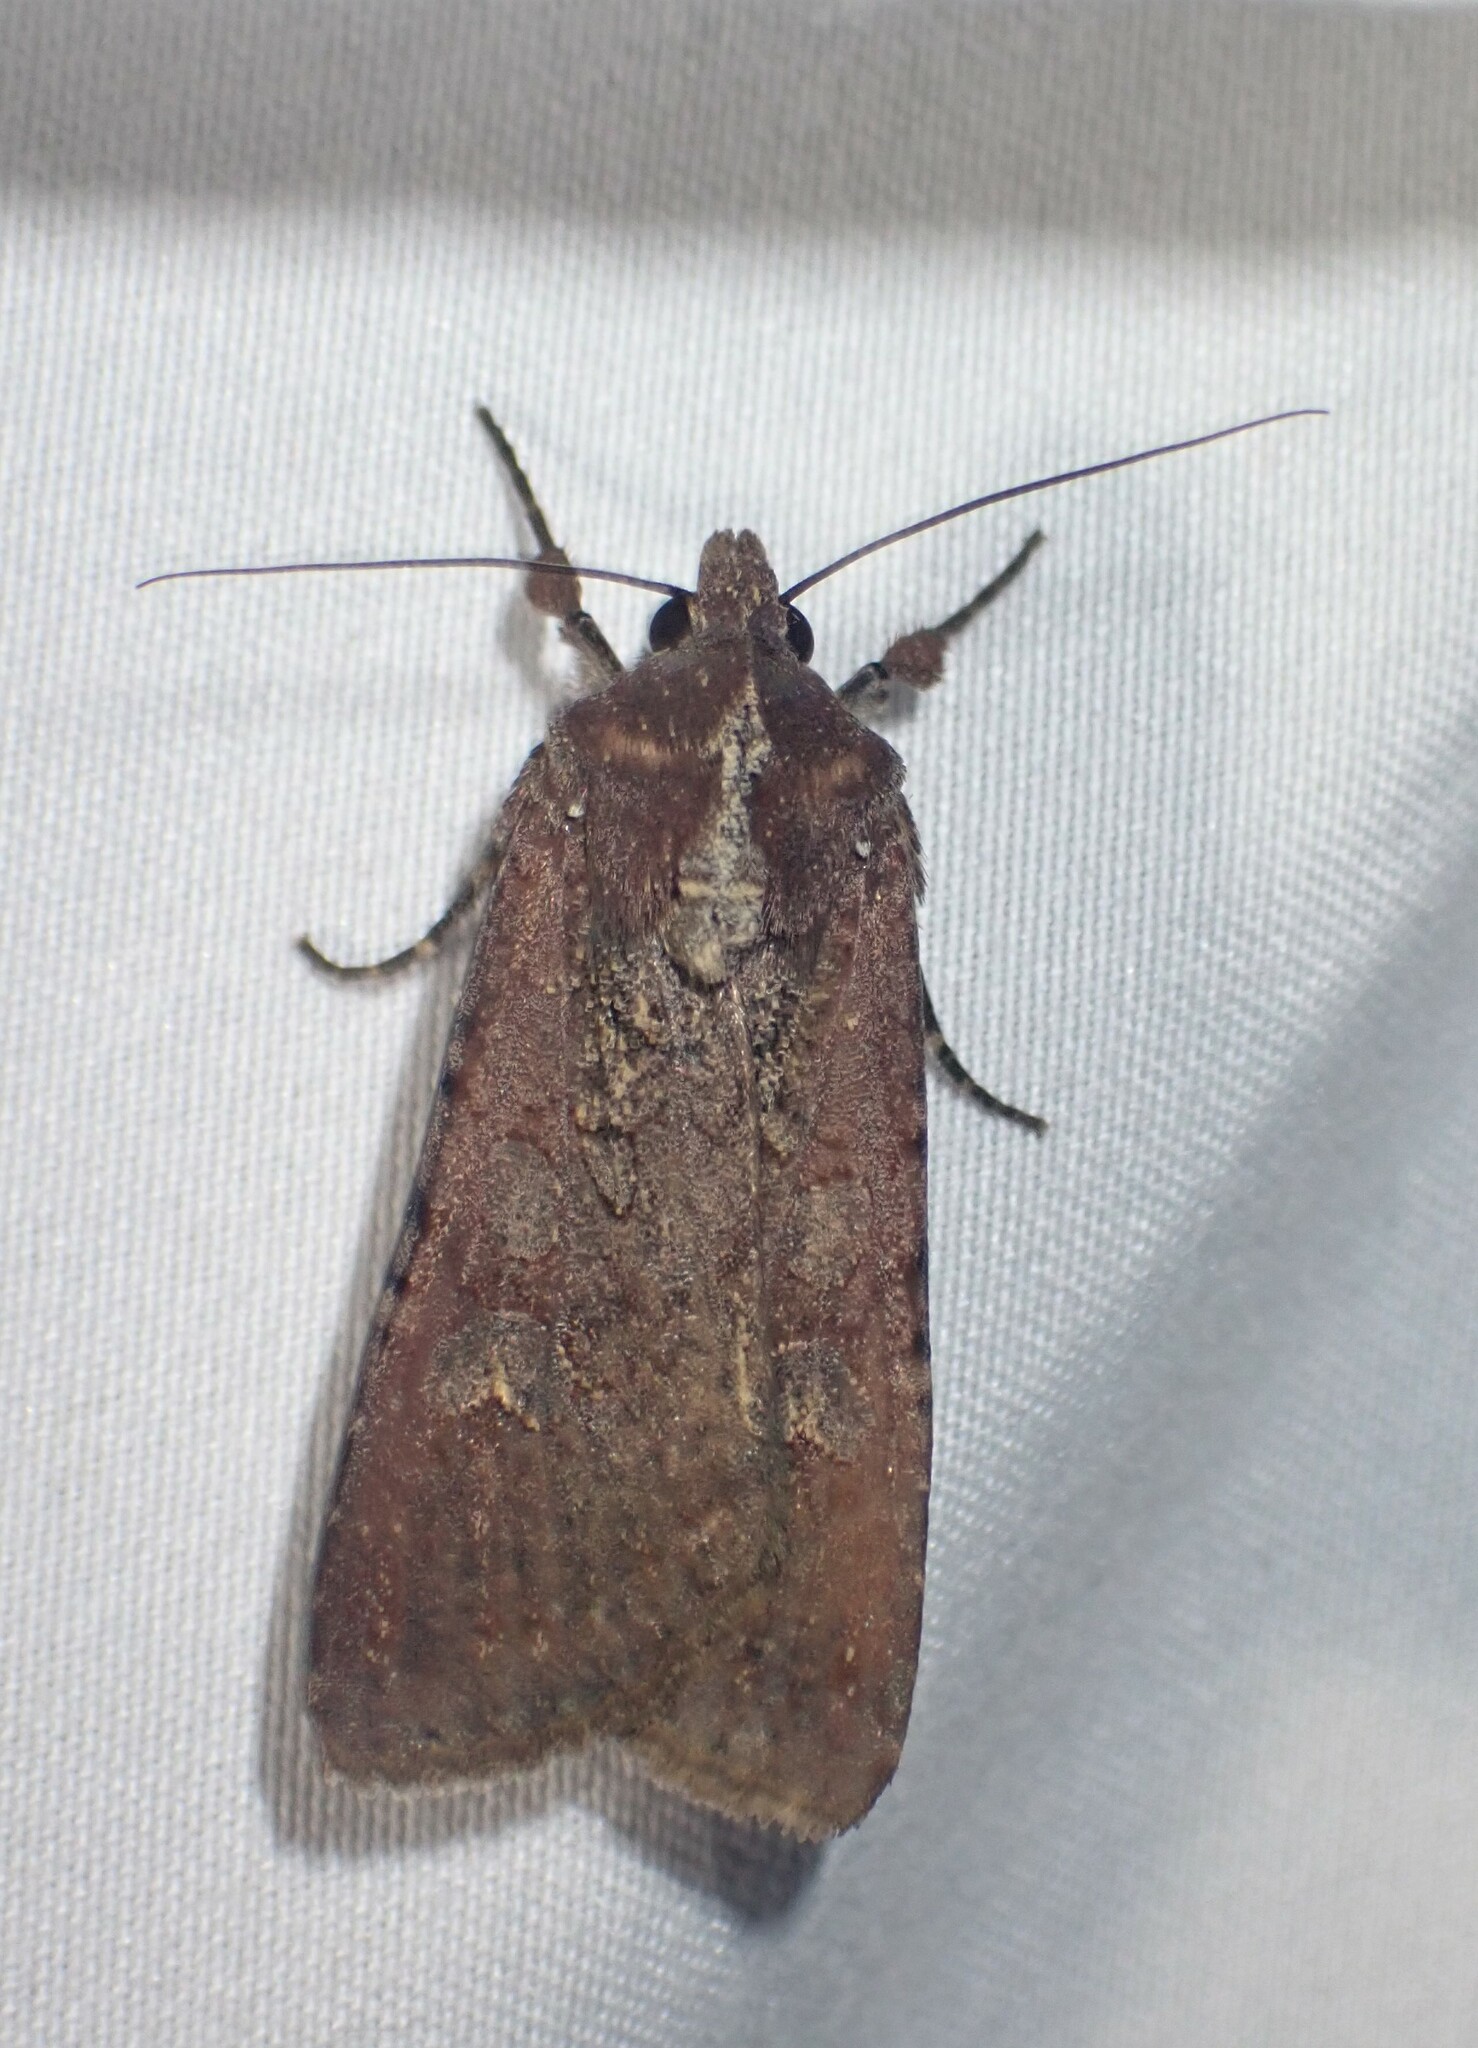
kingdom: Animalia
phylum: Arthropoda
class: Insecta
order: Lepidoptera
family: Noctuidae
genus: Peridroma
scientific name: Peridroma saucia
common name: Pearly underwing
